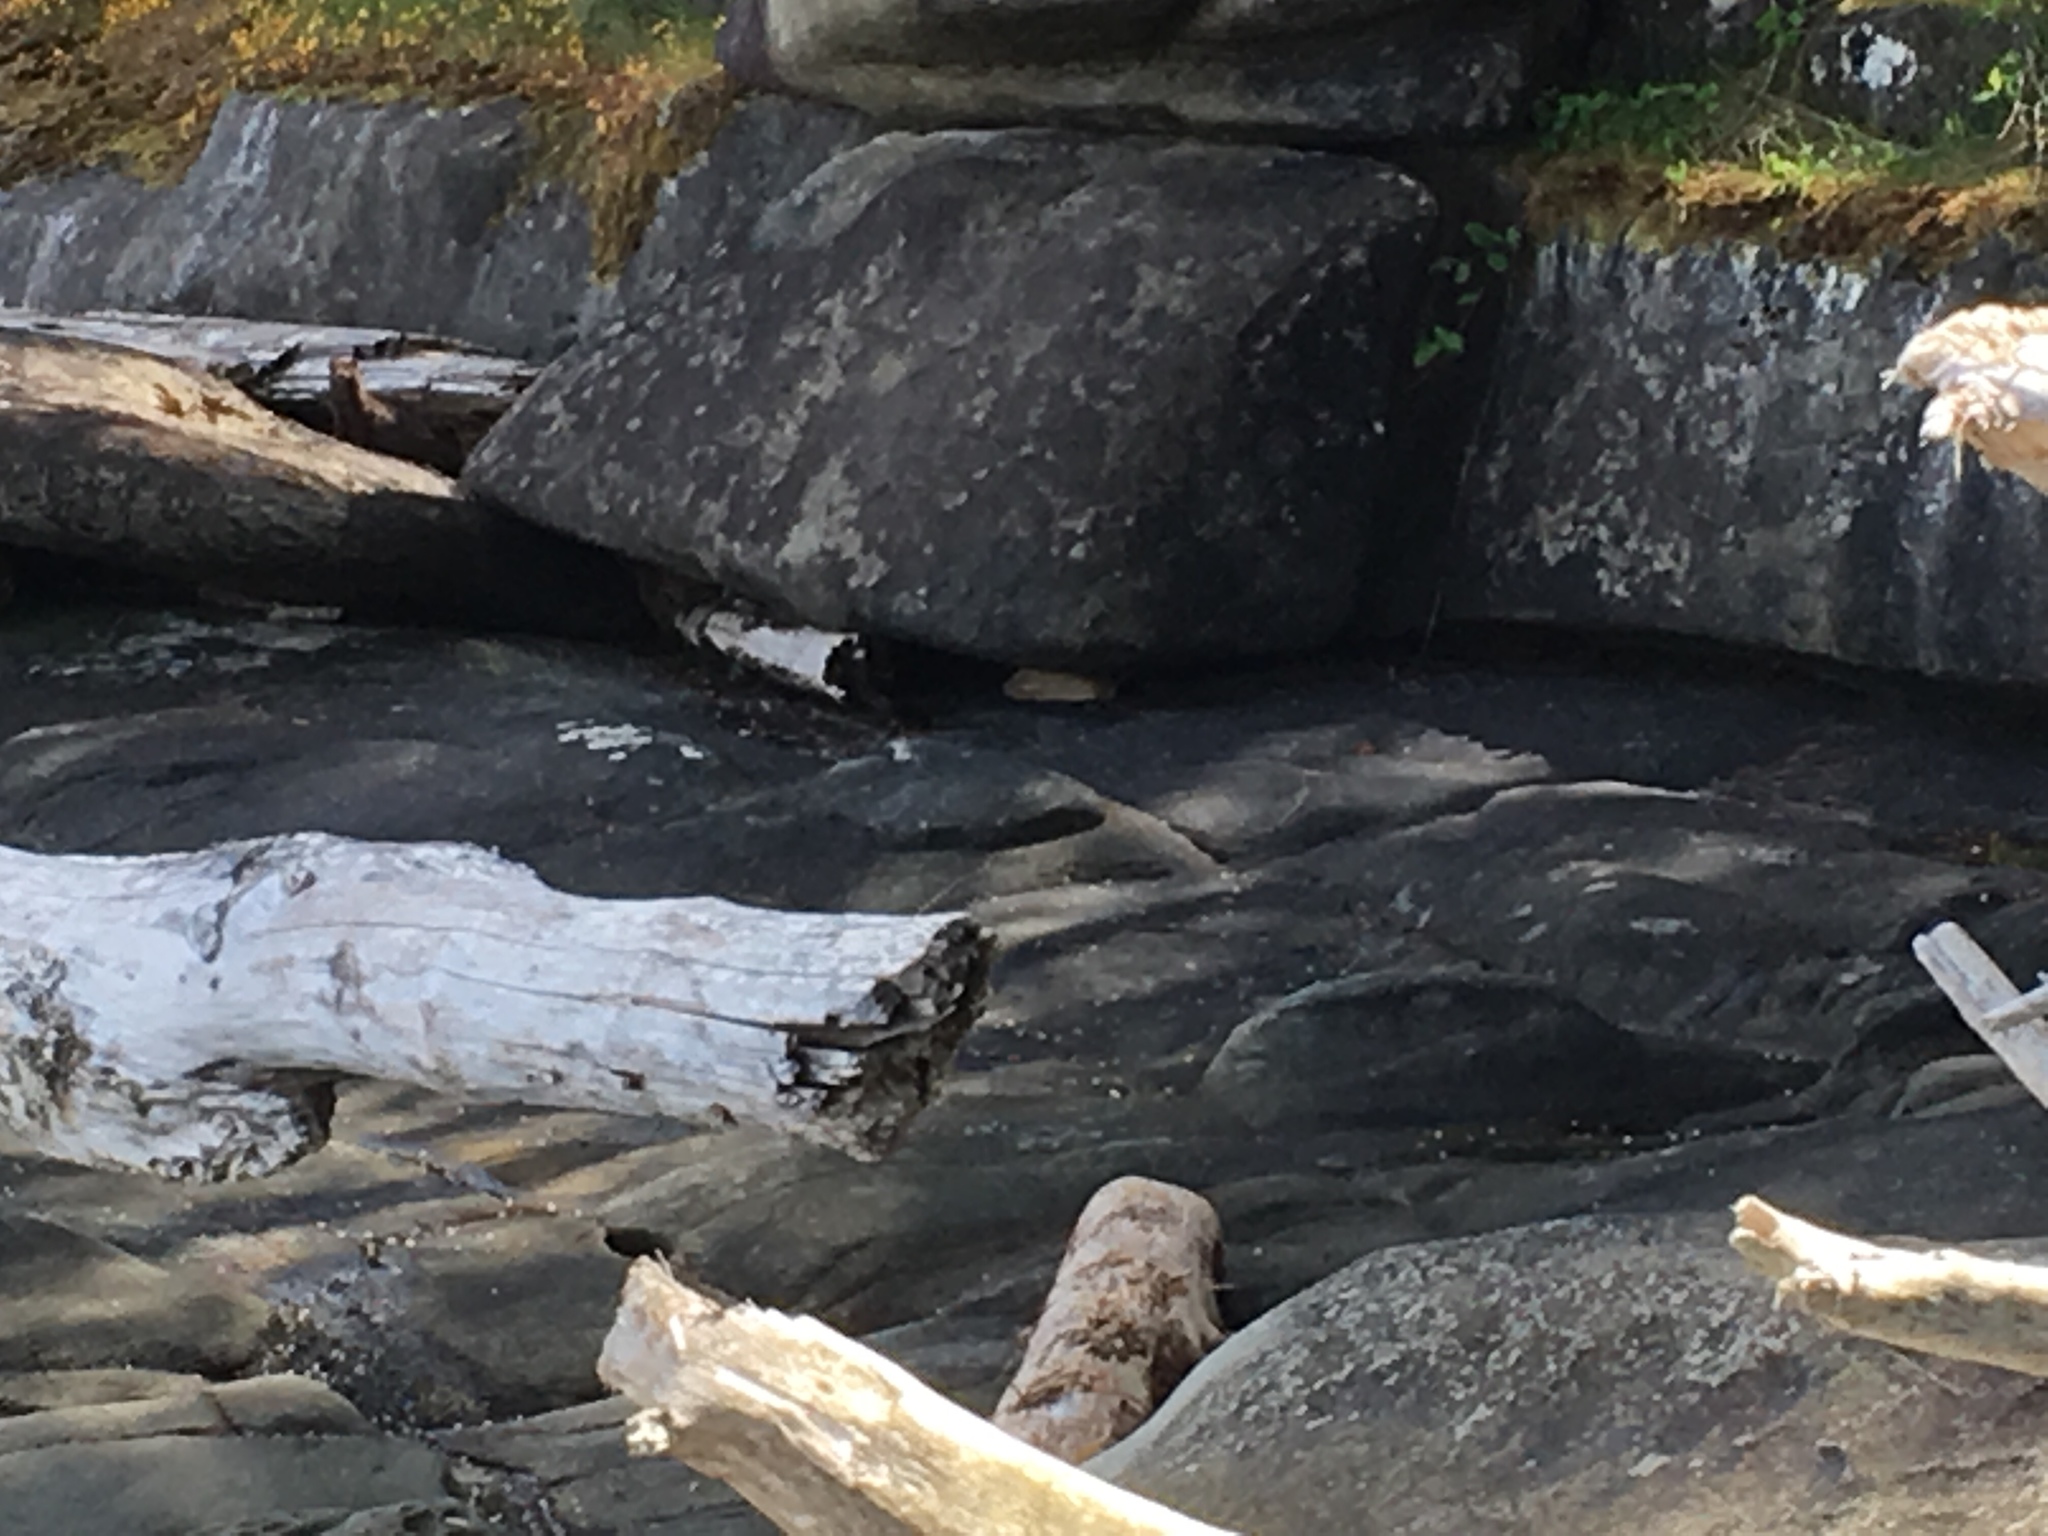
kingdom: Animalia
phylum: Chordata
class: Mammalia
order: Carnivora
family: Mustelidae
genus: Mustela
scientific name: Mustela
